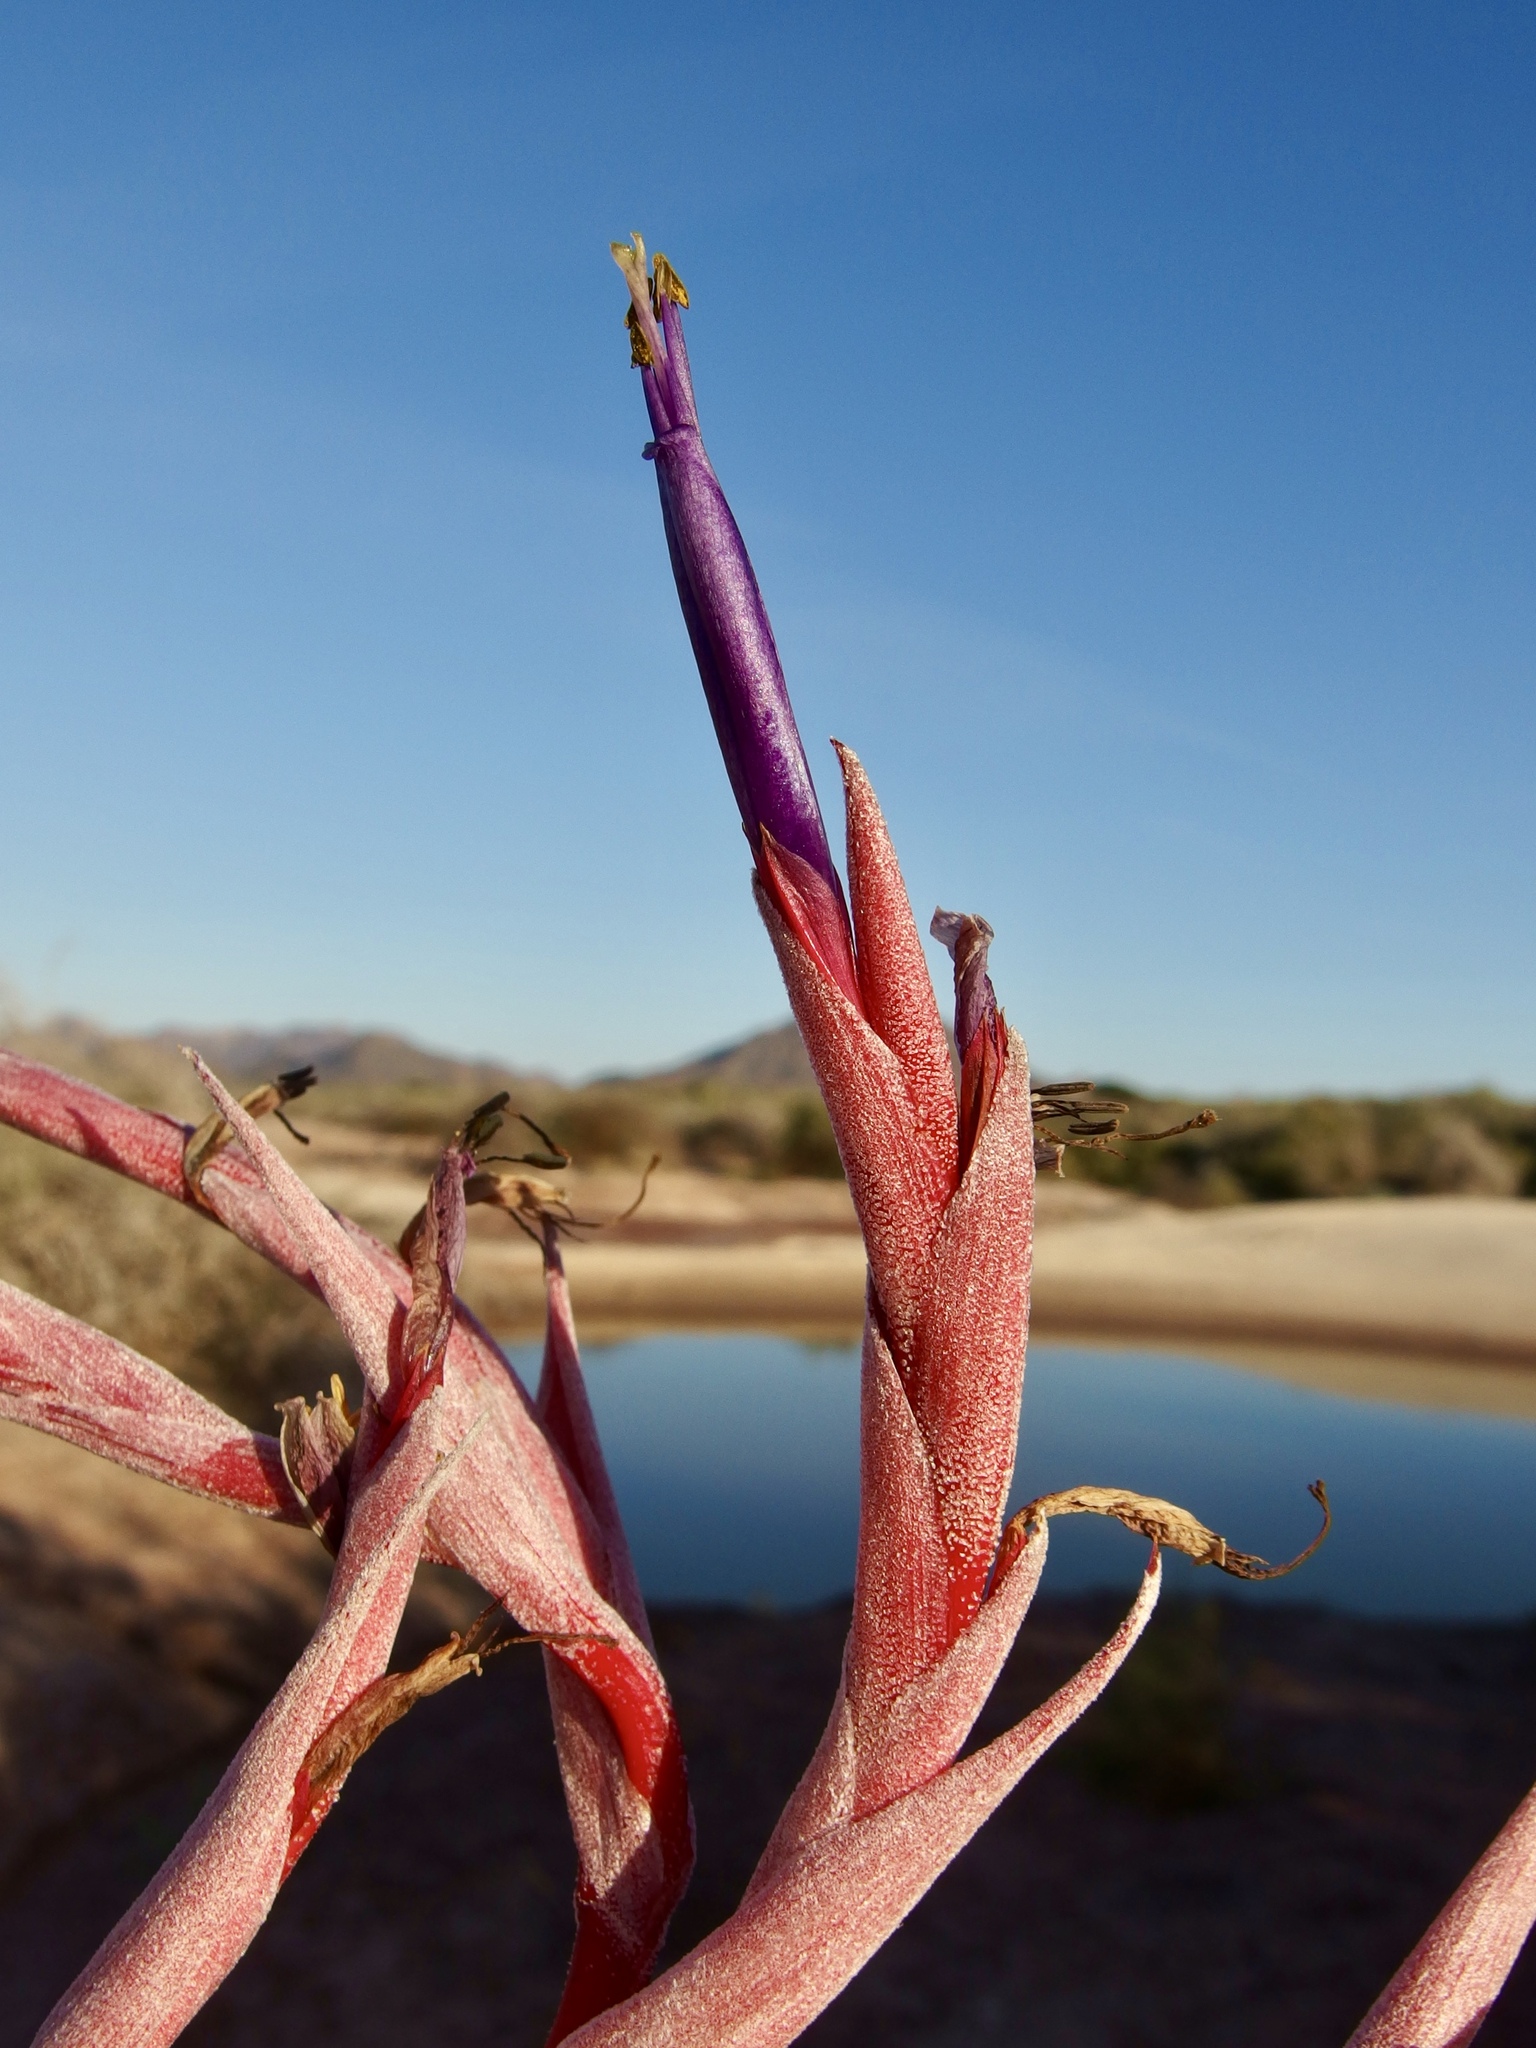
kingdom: Plantae
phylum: Tracheophyta
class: Liliopsida
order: Poales
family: Bromeliaceae
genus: Tillandsia
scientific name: Tillandsia exserta
